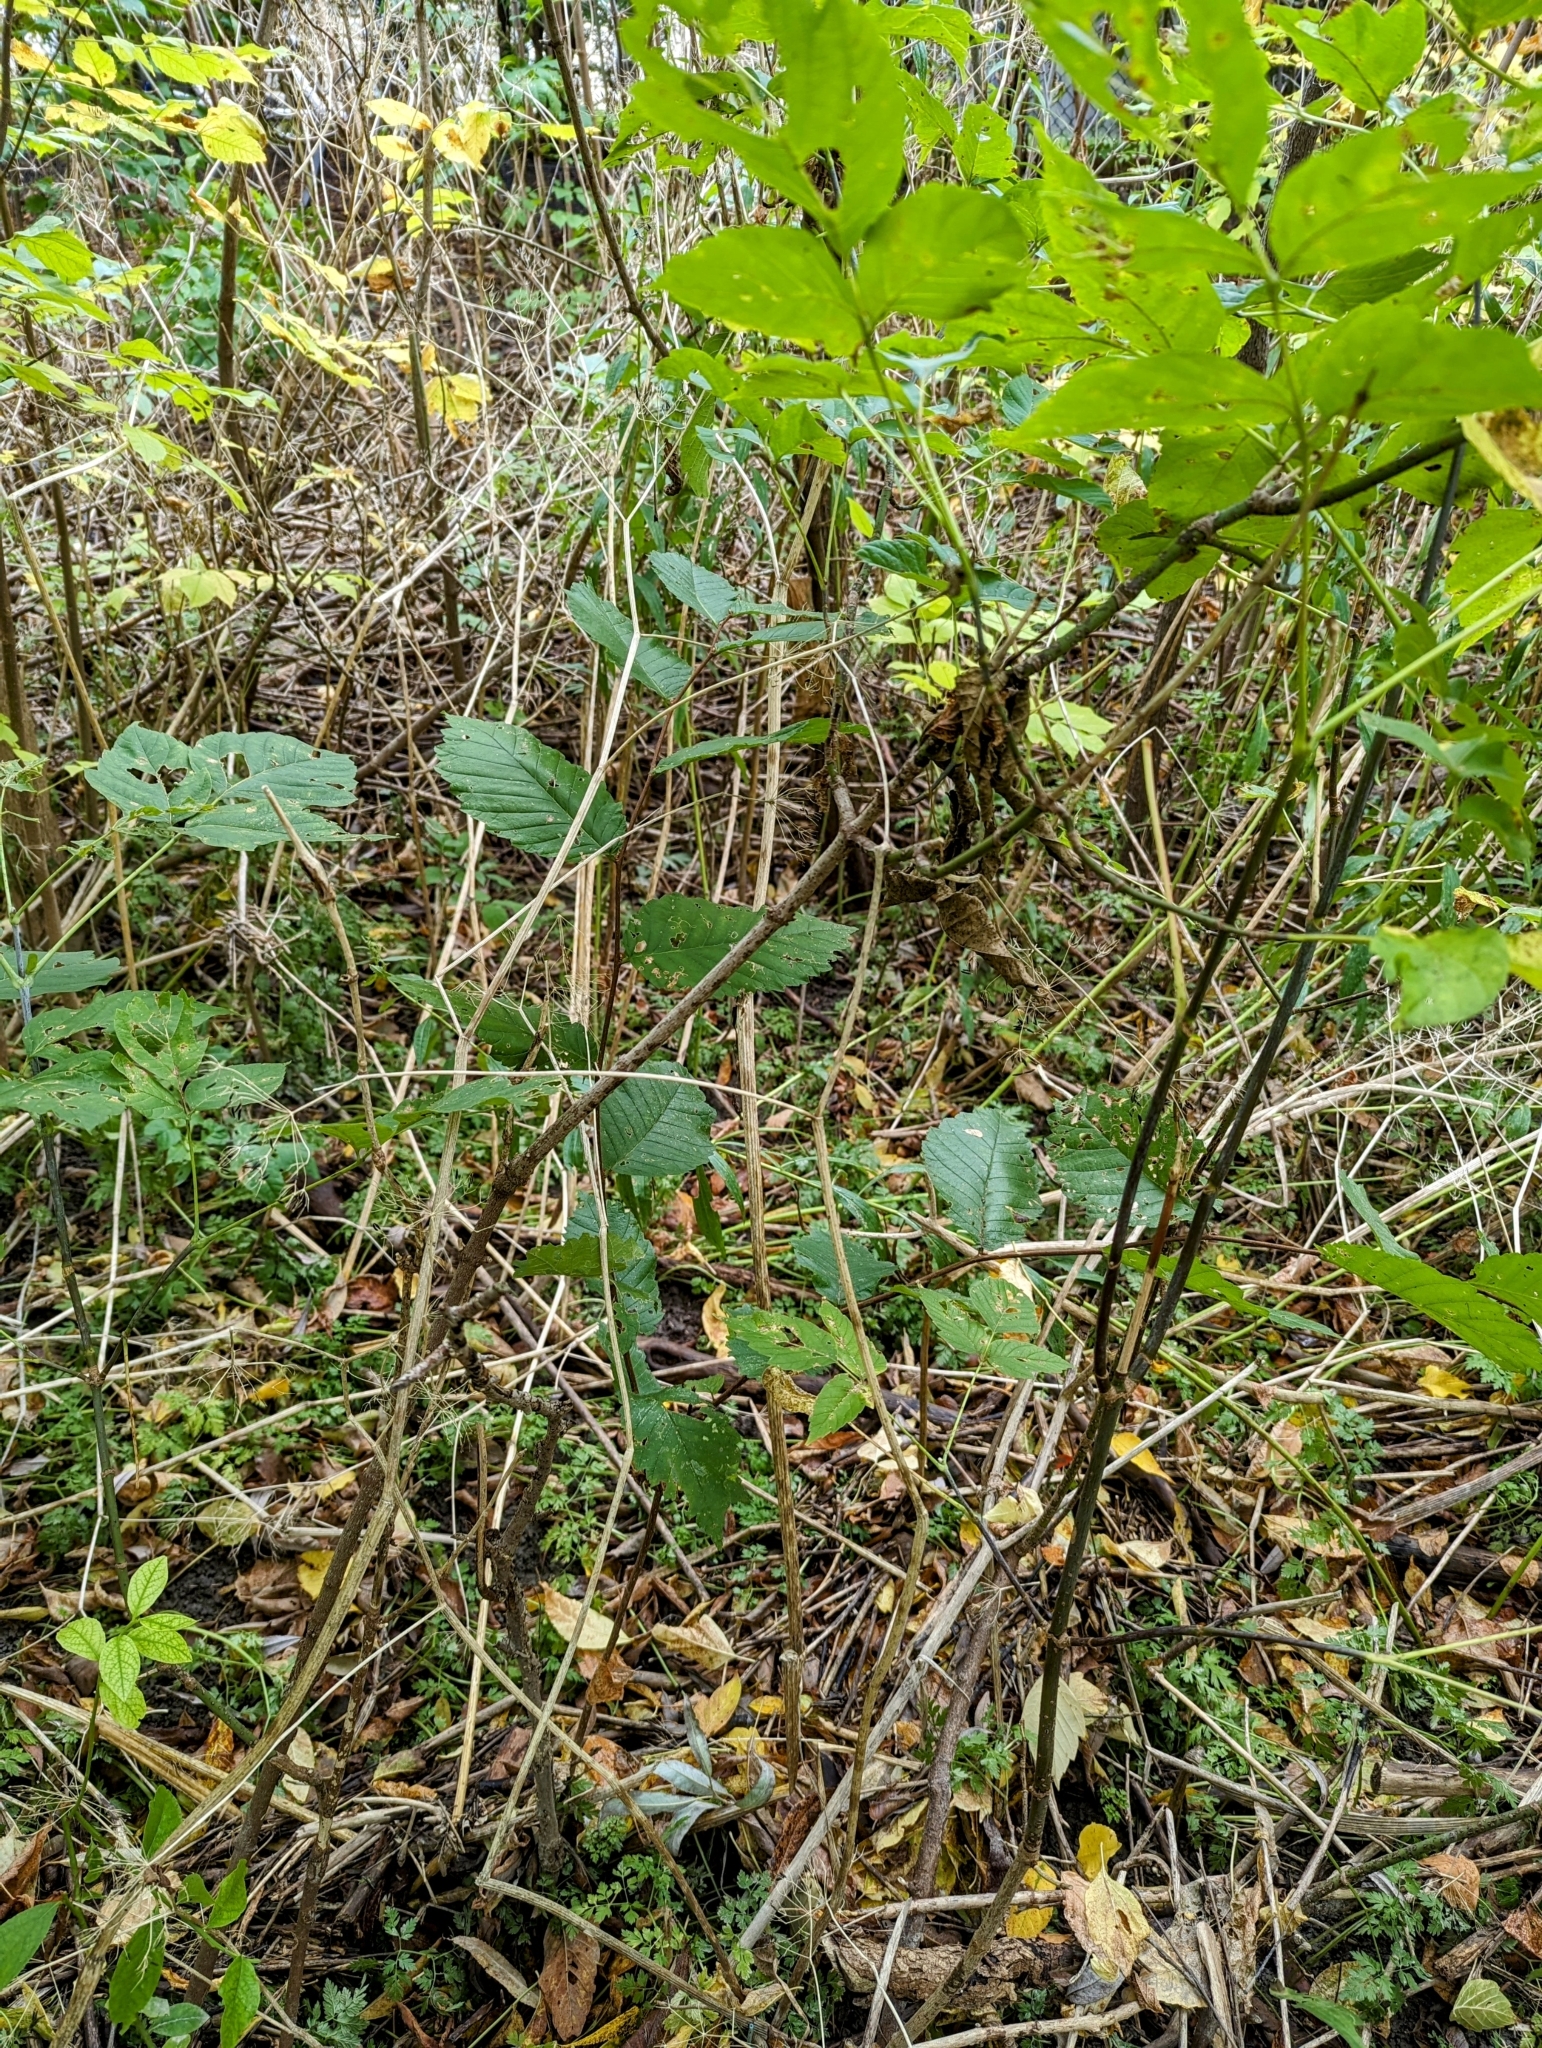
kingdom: Plantae
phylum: Tracheophyta
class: Magnoliopsida
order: Rosales
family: Ulmaceae
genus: Ulmus
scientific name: Ulmus americana
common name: American elm
